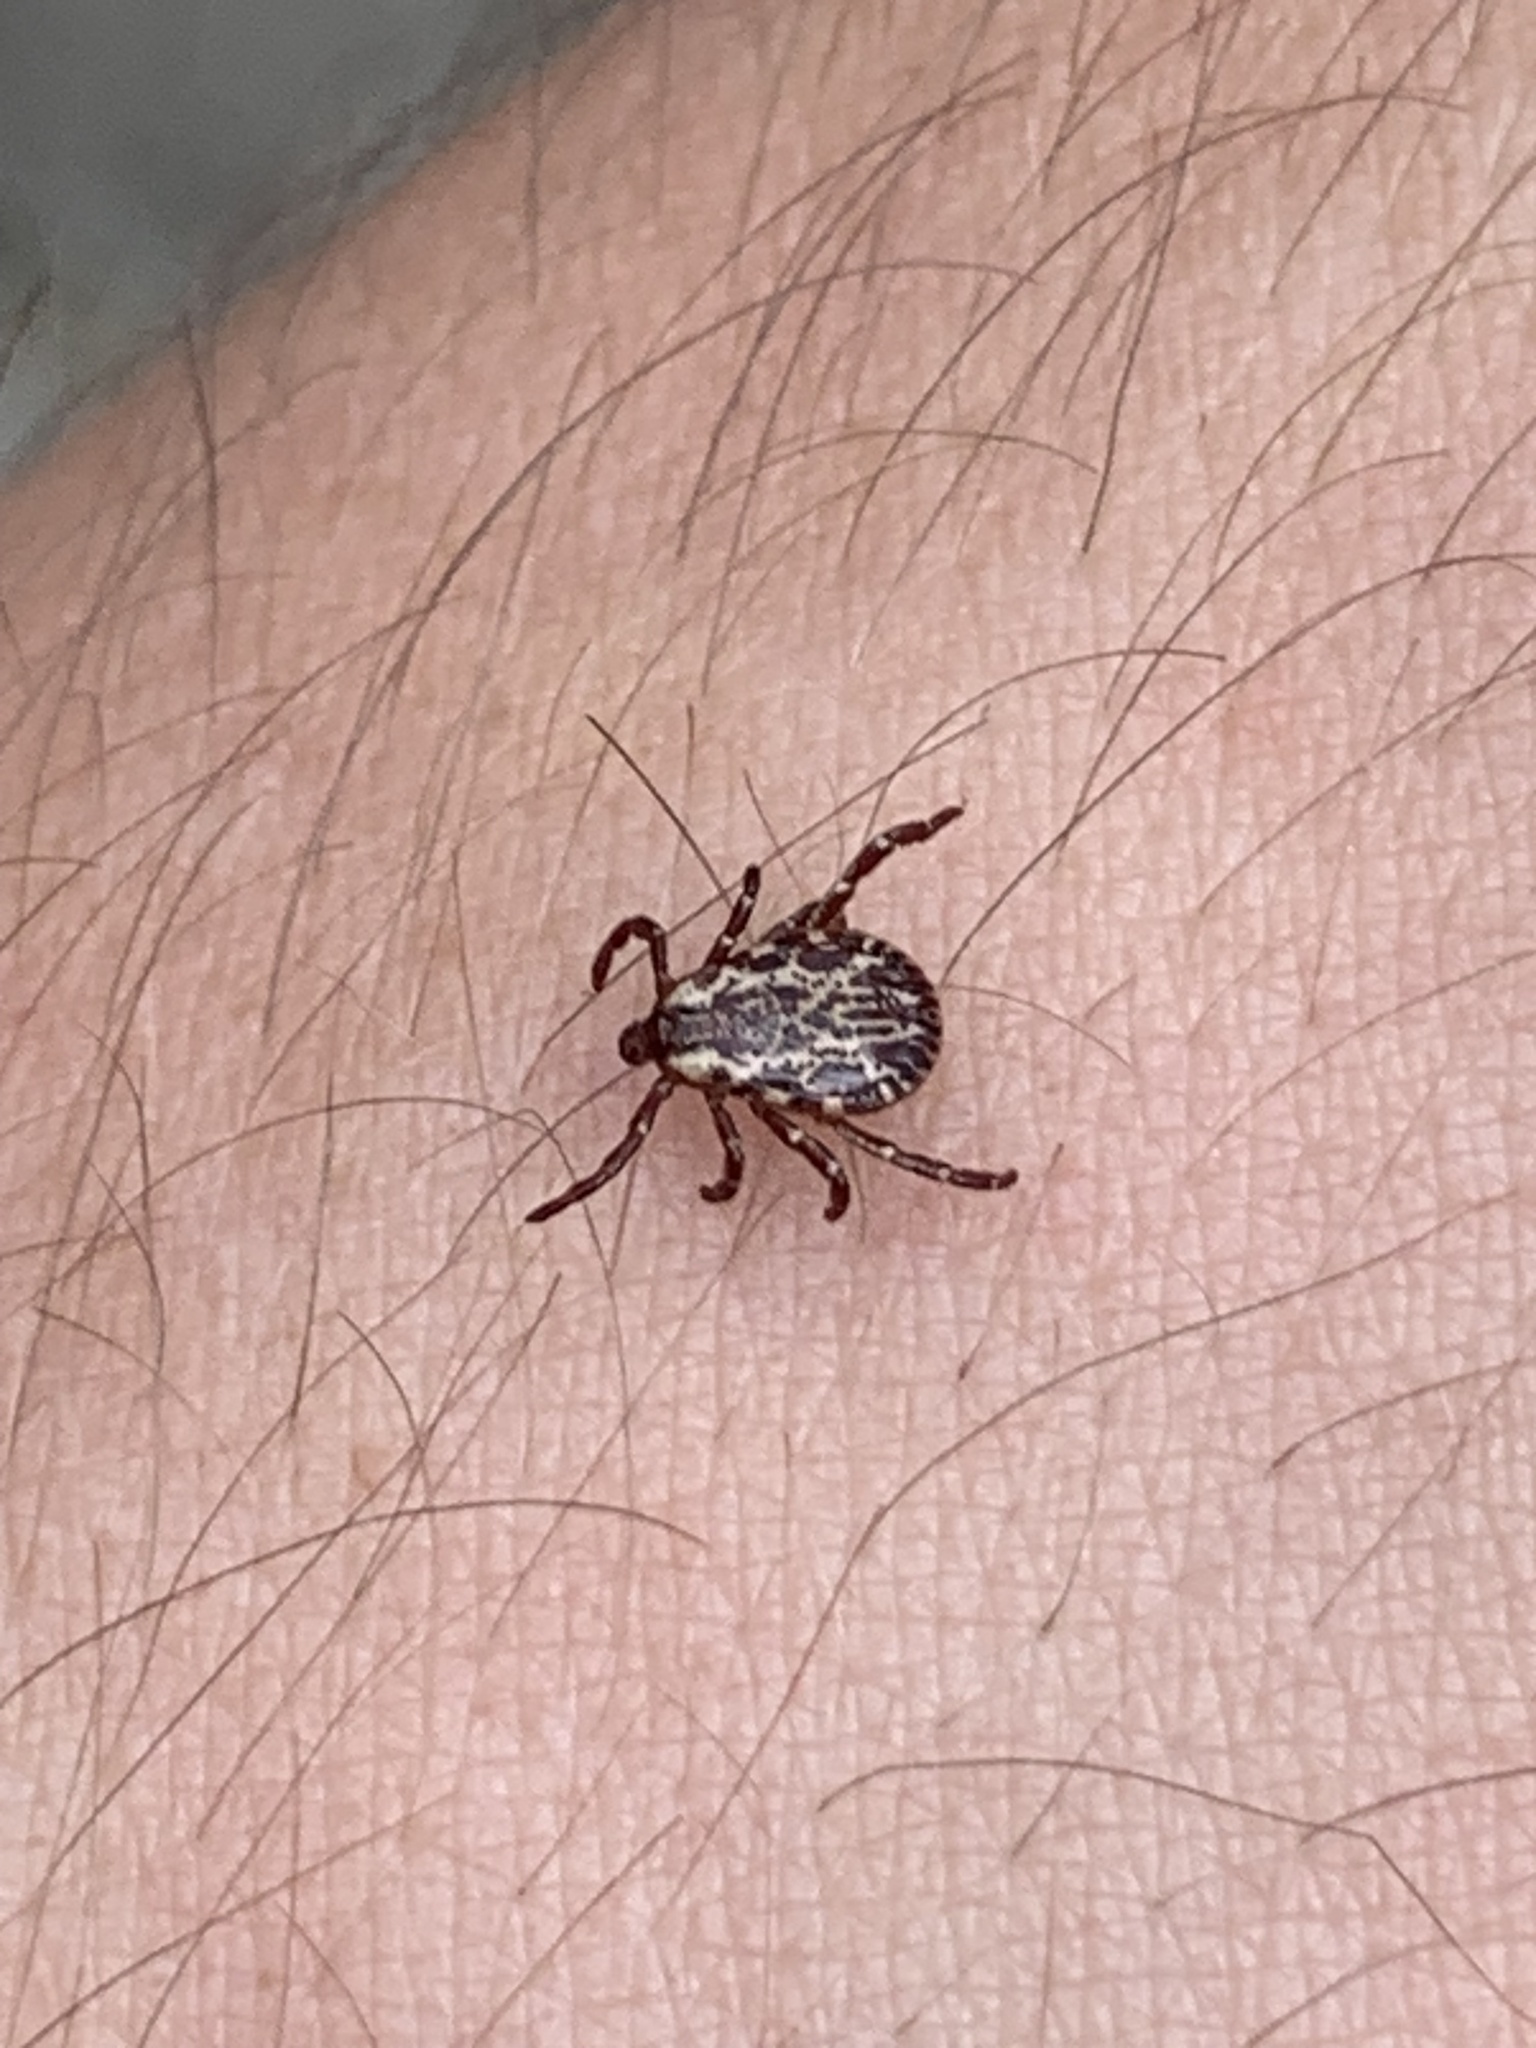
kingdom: Animalia
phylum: Arthropoda
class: Arachnida
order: Ixodida
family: Ixodidae
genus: Dermacentor
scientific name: Dermacentor variabilis
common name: American dog tick
